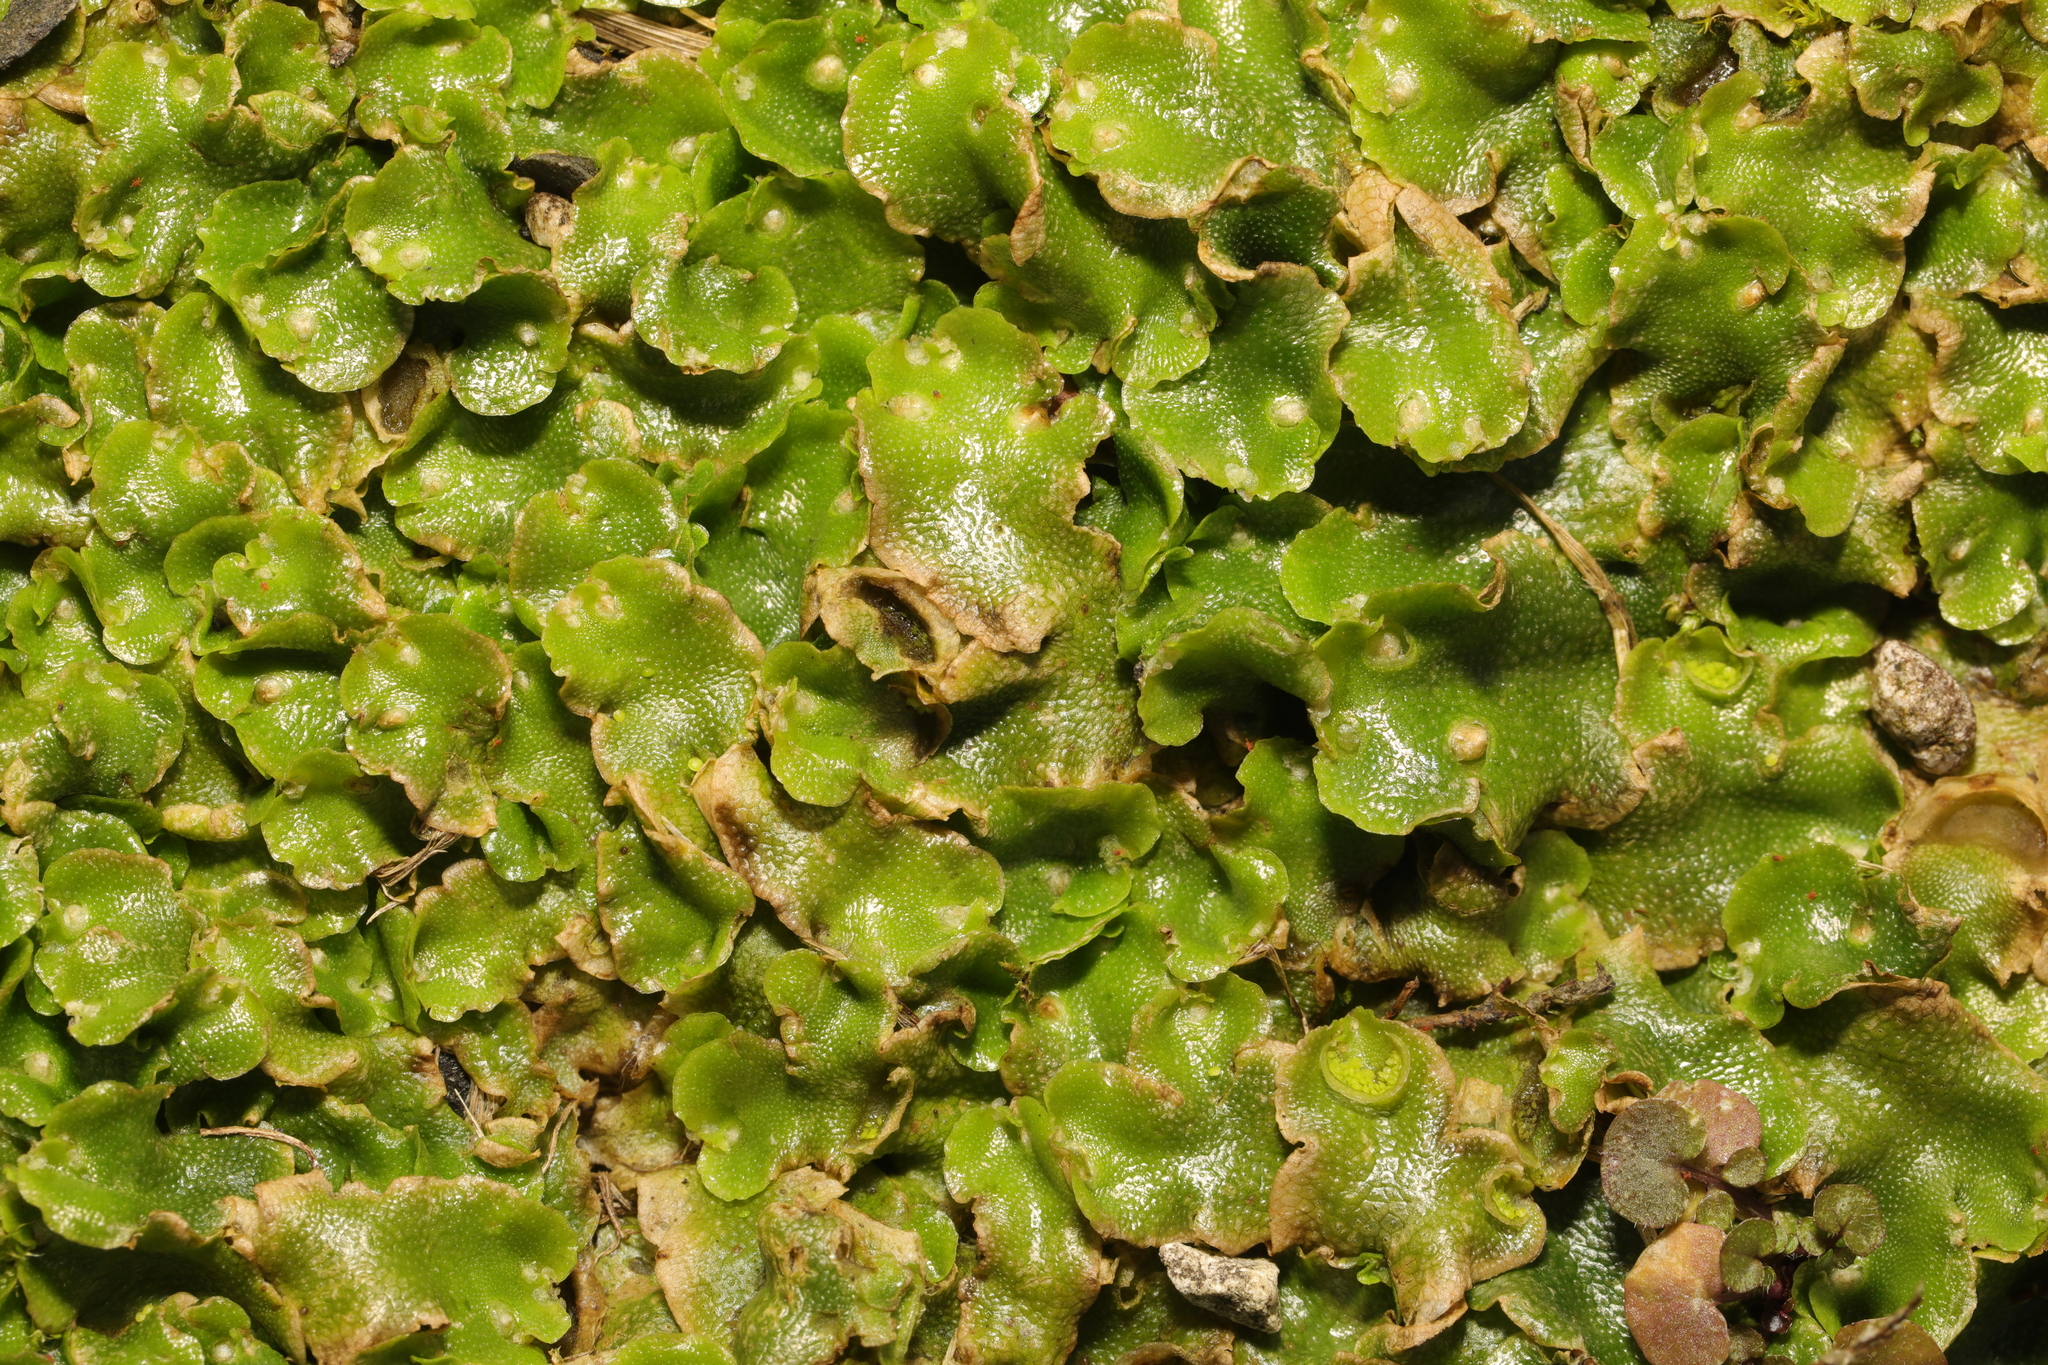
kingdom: Plantae
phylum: Marchantiophyta
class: Marchantiopsida
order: Lunulariales
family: Lunulariaceae
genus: Lunularia
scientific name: Lunularia cruciata
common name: Crescent-cup liverwort
